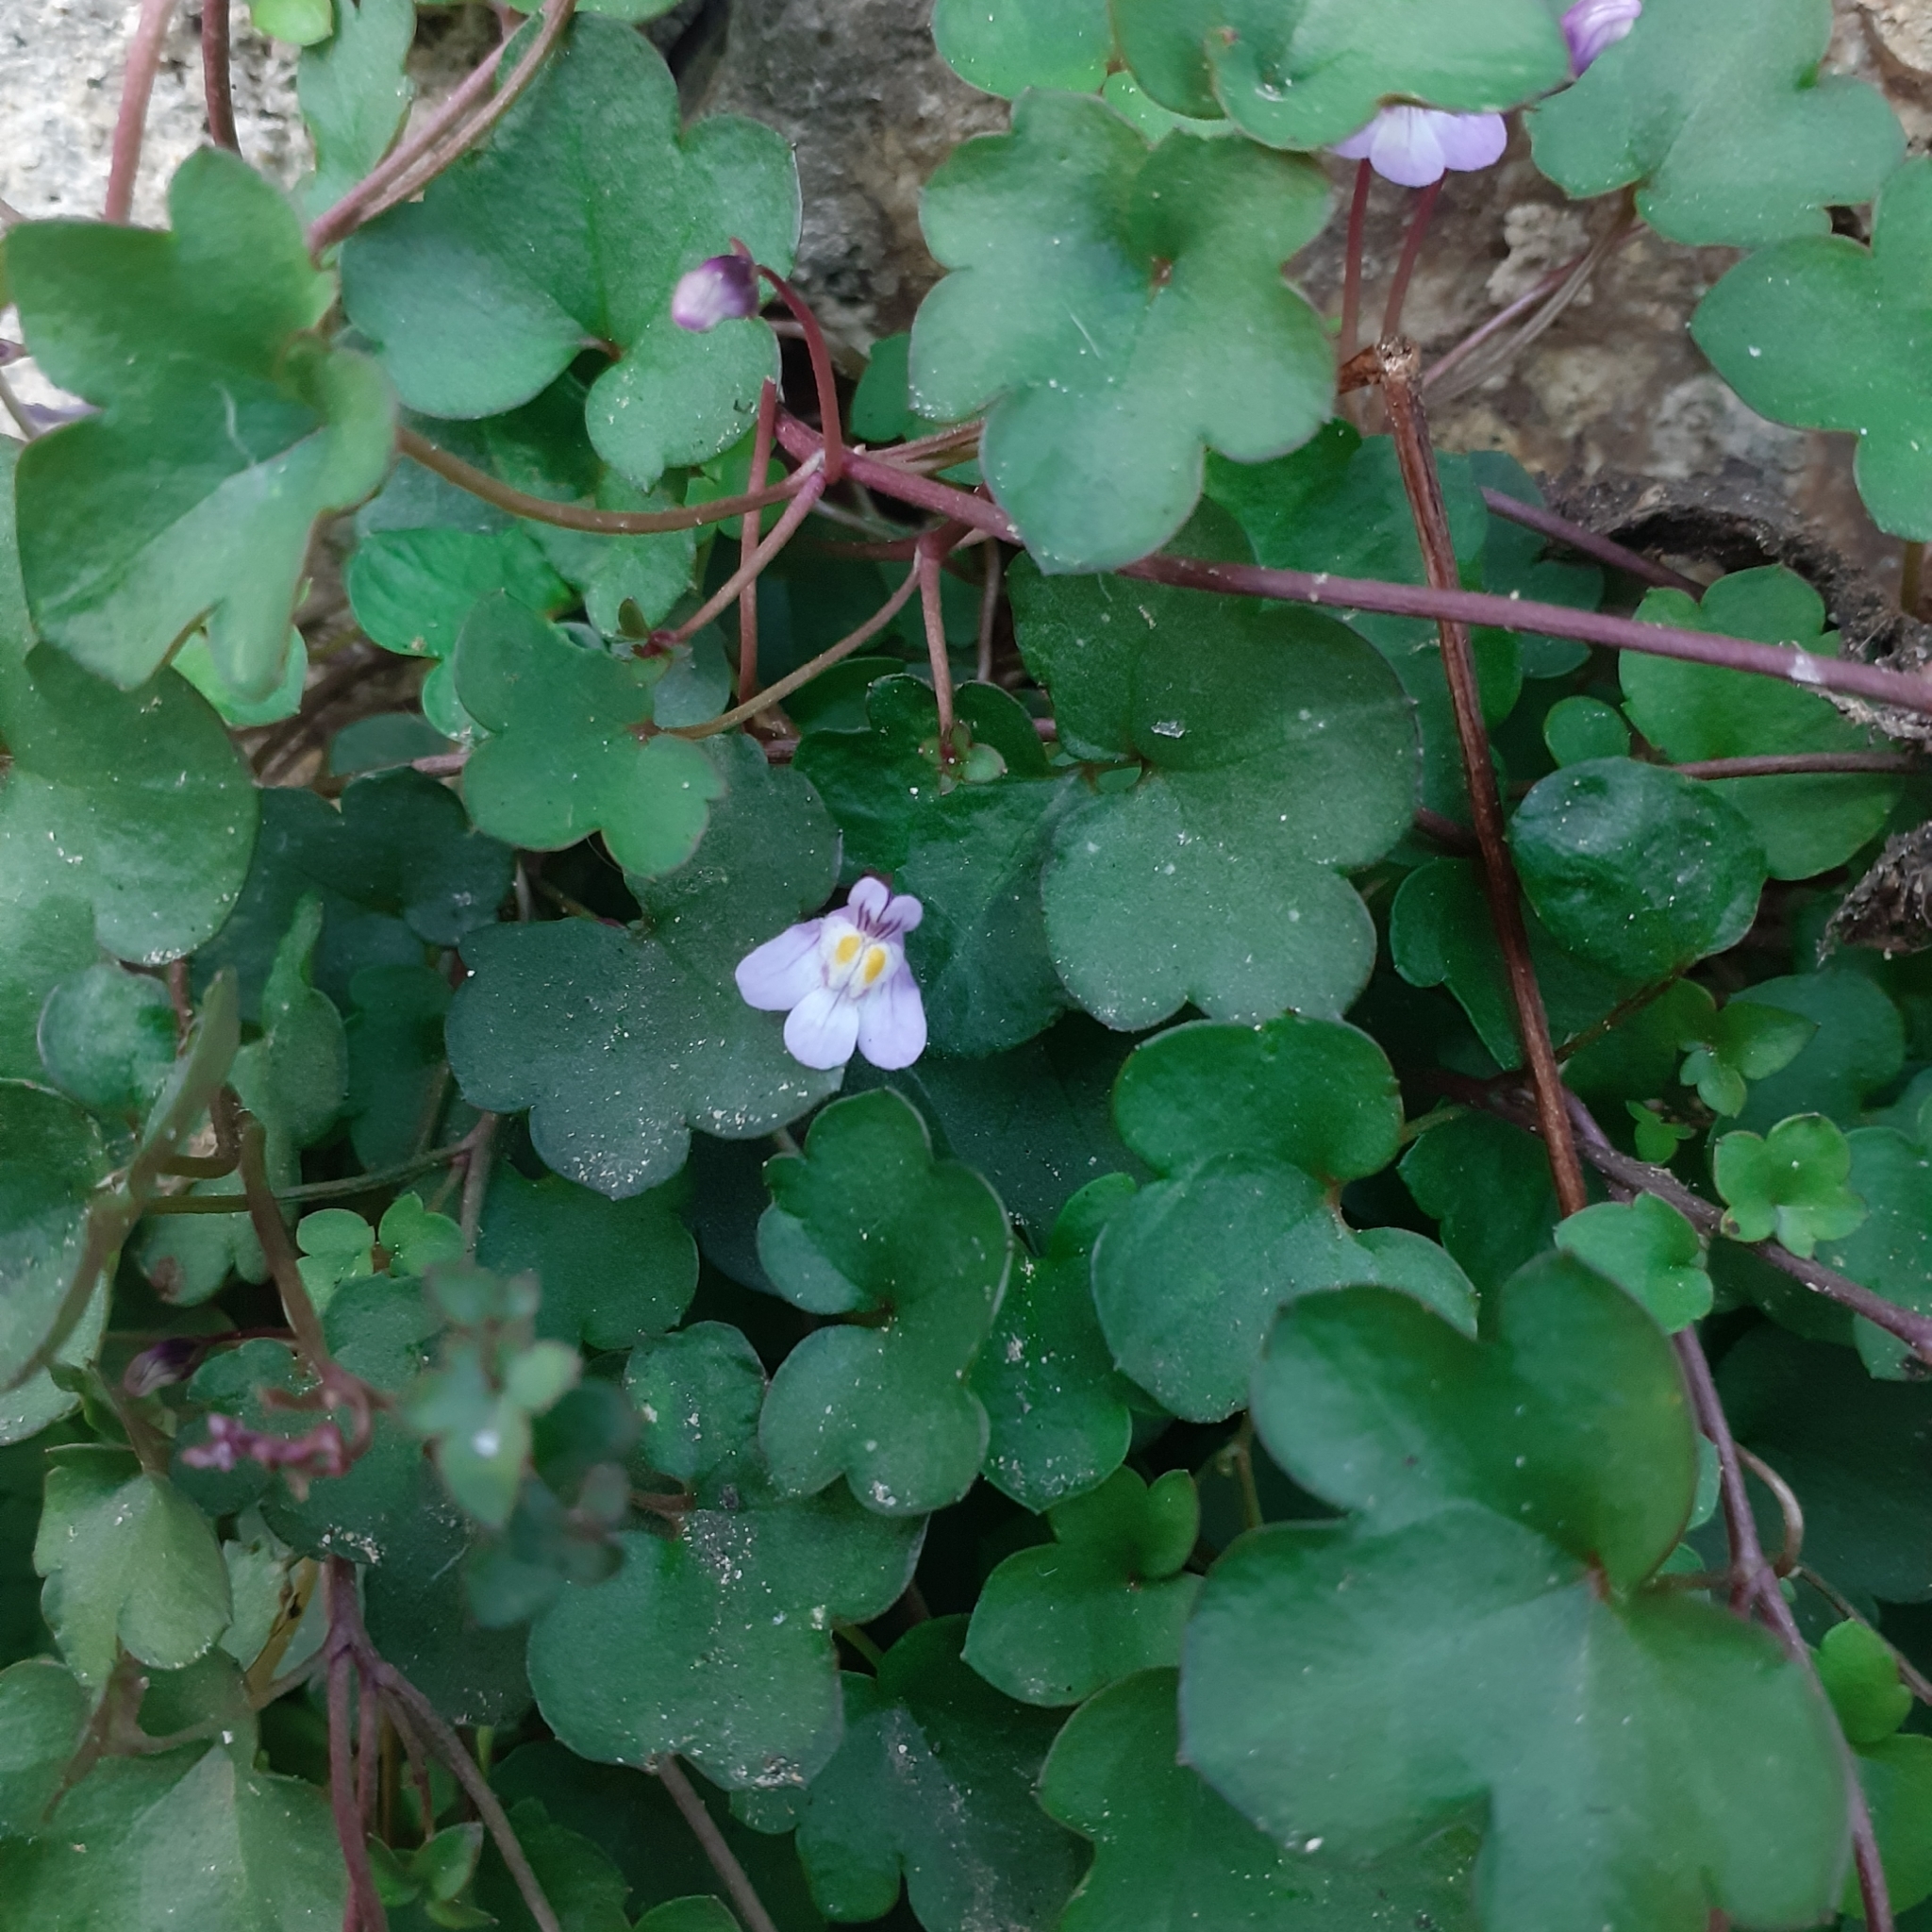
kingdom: Plantae
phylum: Tracheophyta
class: Magnoliopsida
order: Lamiales
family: Plantaginaceae
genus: Cymbalaria
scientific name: Cymbalaria muralis
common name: Ivy-leaved toadflax
